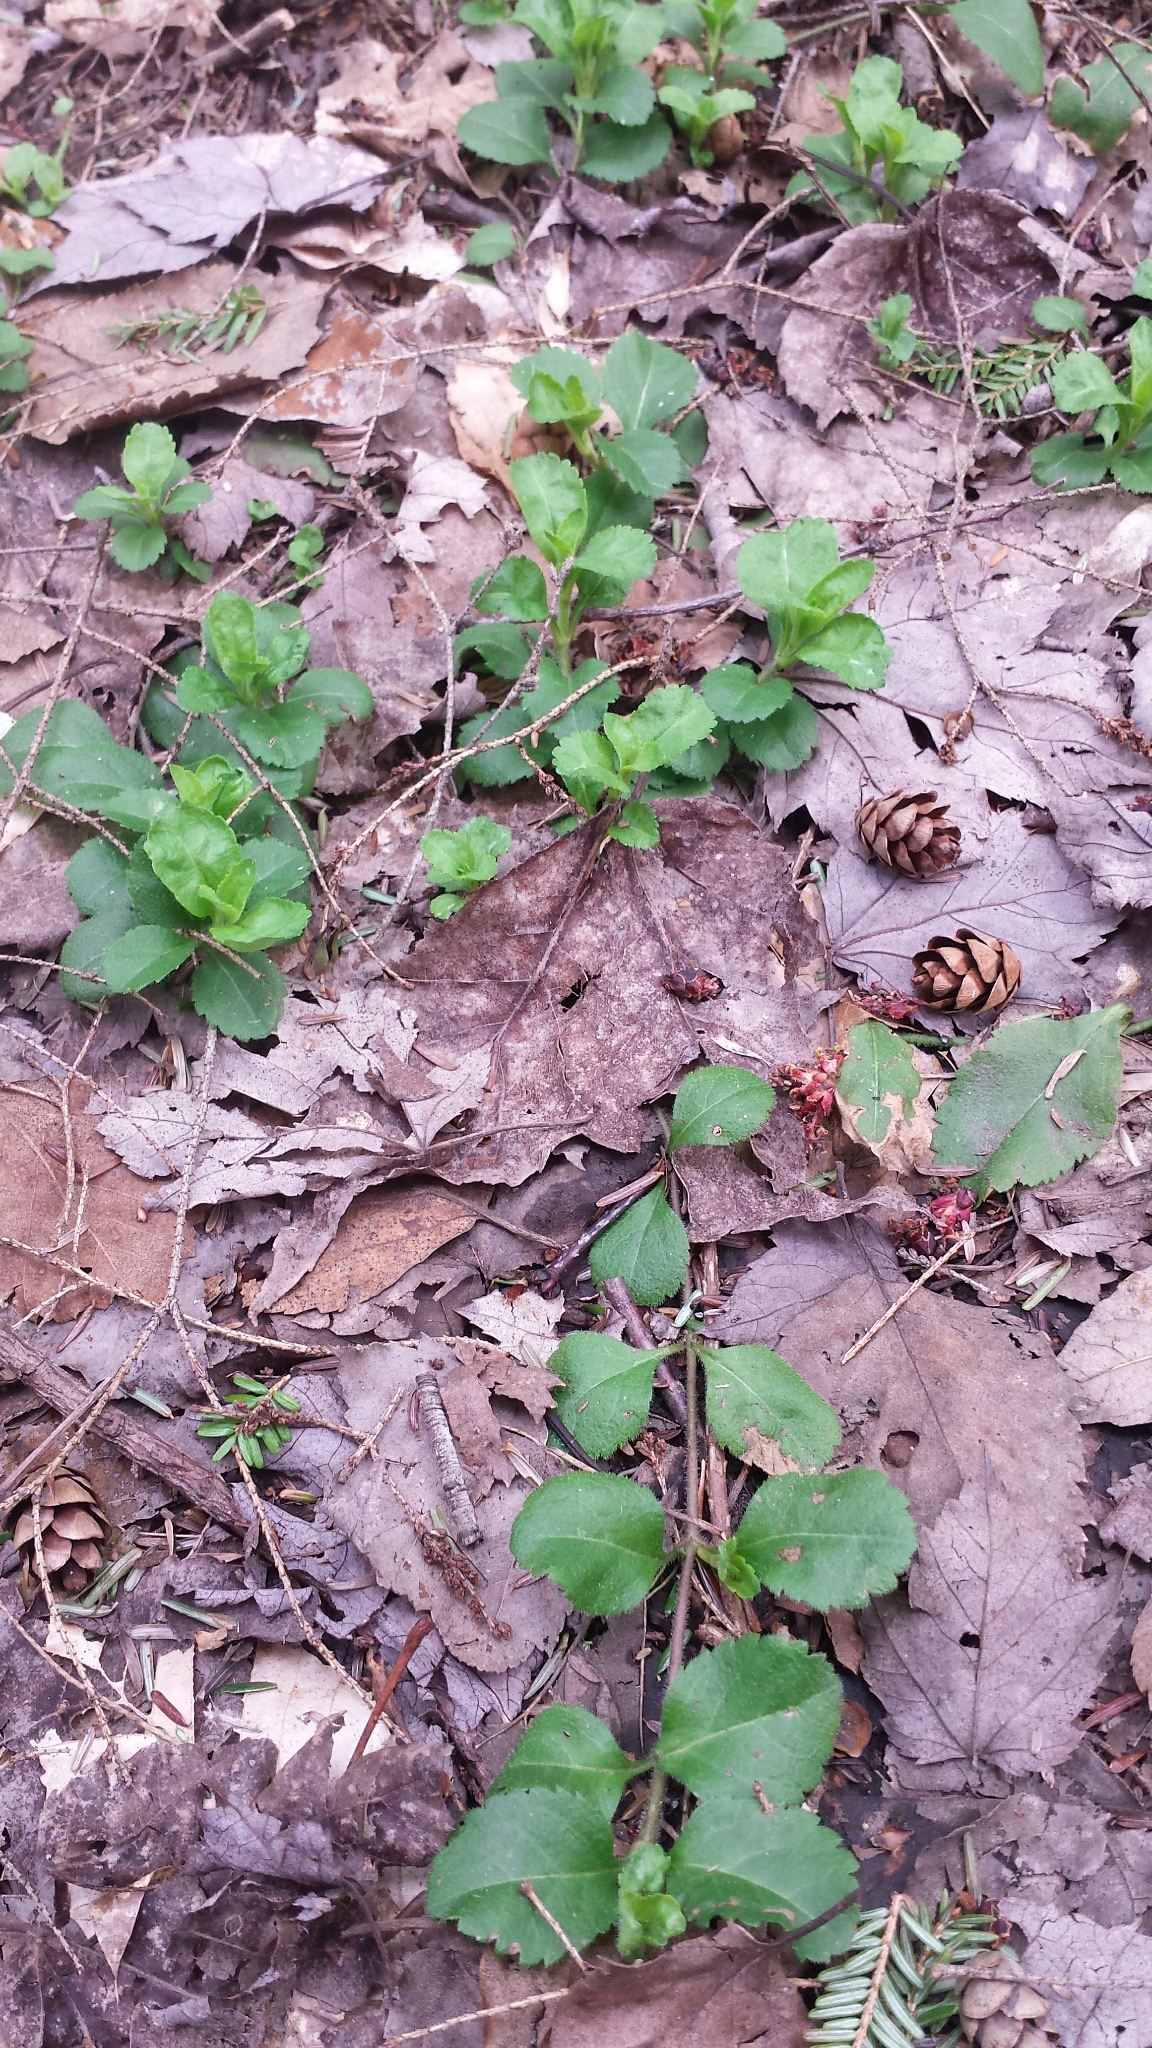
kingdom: Plantae
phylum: Tracheophyta
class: Magnoliopsida
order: Lamiales
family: Plantaginaceae
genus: Veronica
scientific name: Veronica officinalis
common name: Common speedwell
